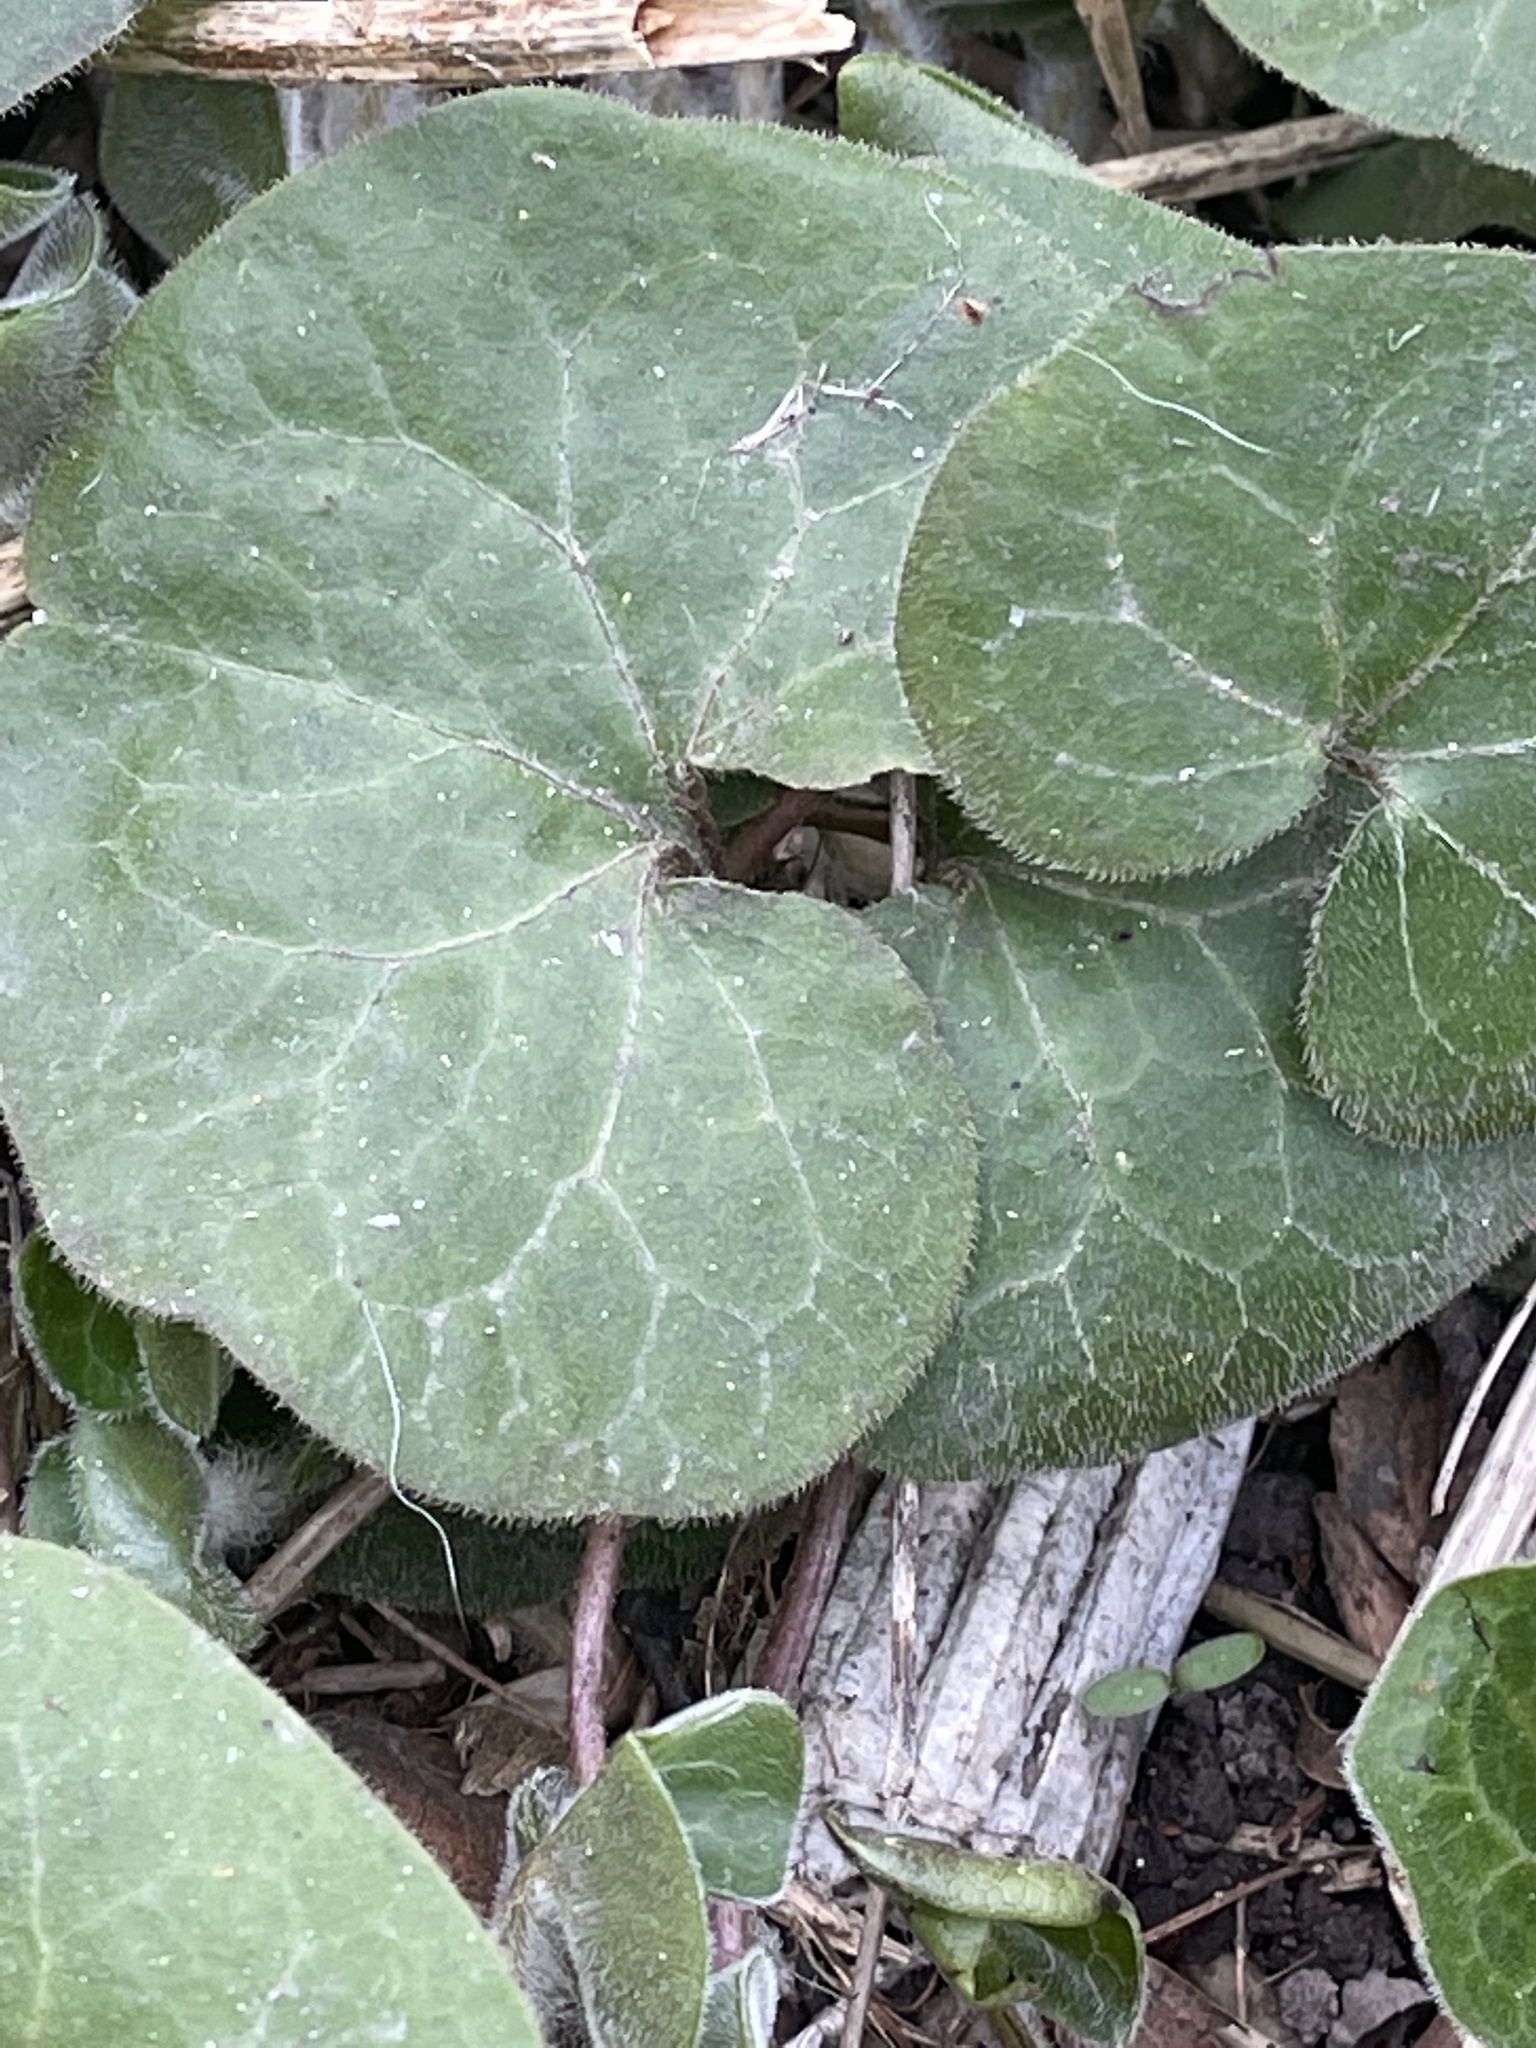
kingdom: Plantae
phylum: Tracheophyta
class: Magnoliopsida
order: Piperales
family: Aristolochiaceae
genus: Asarum
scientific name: Asarum europaeum
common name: Asarabacca
